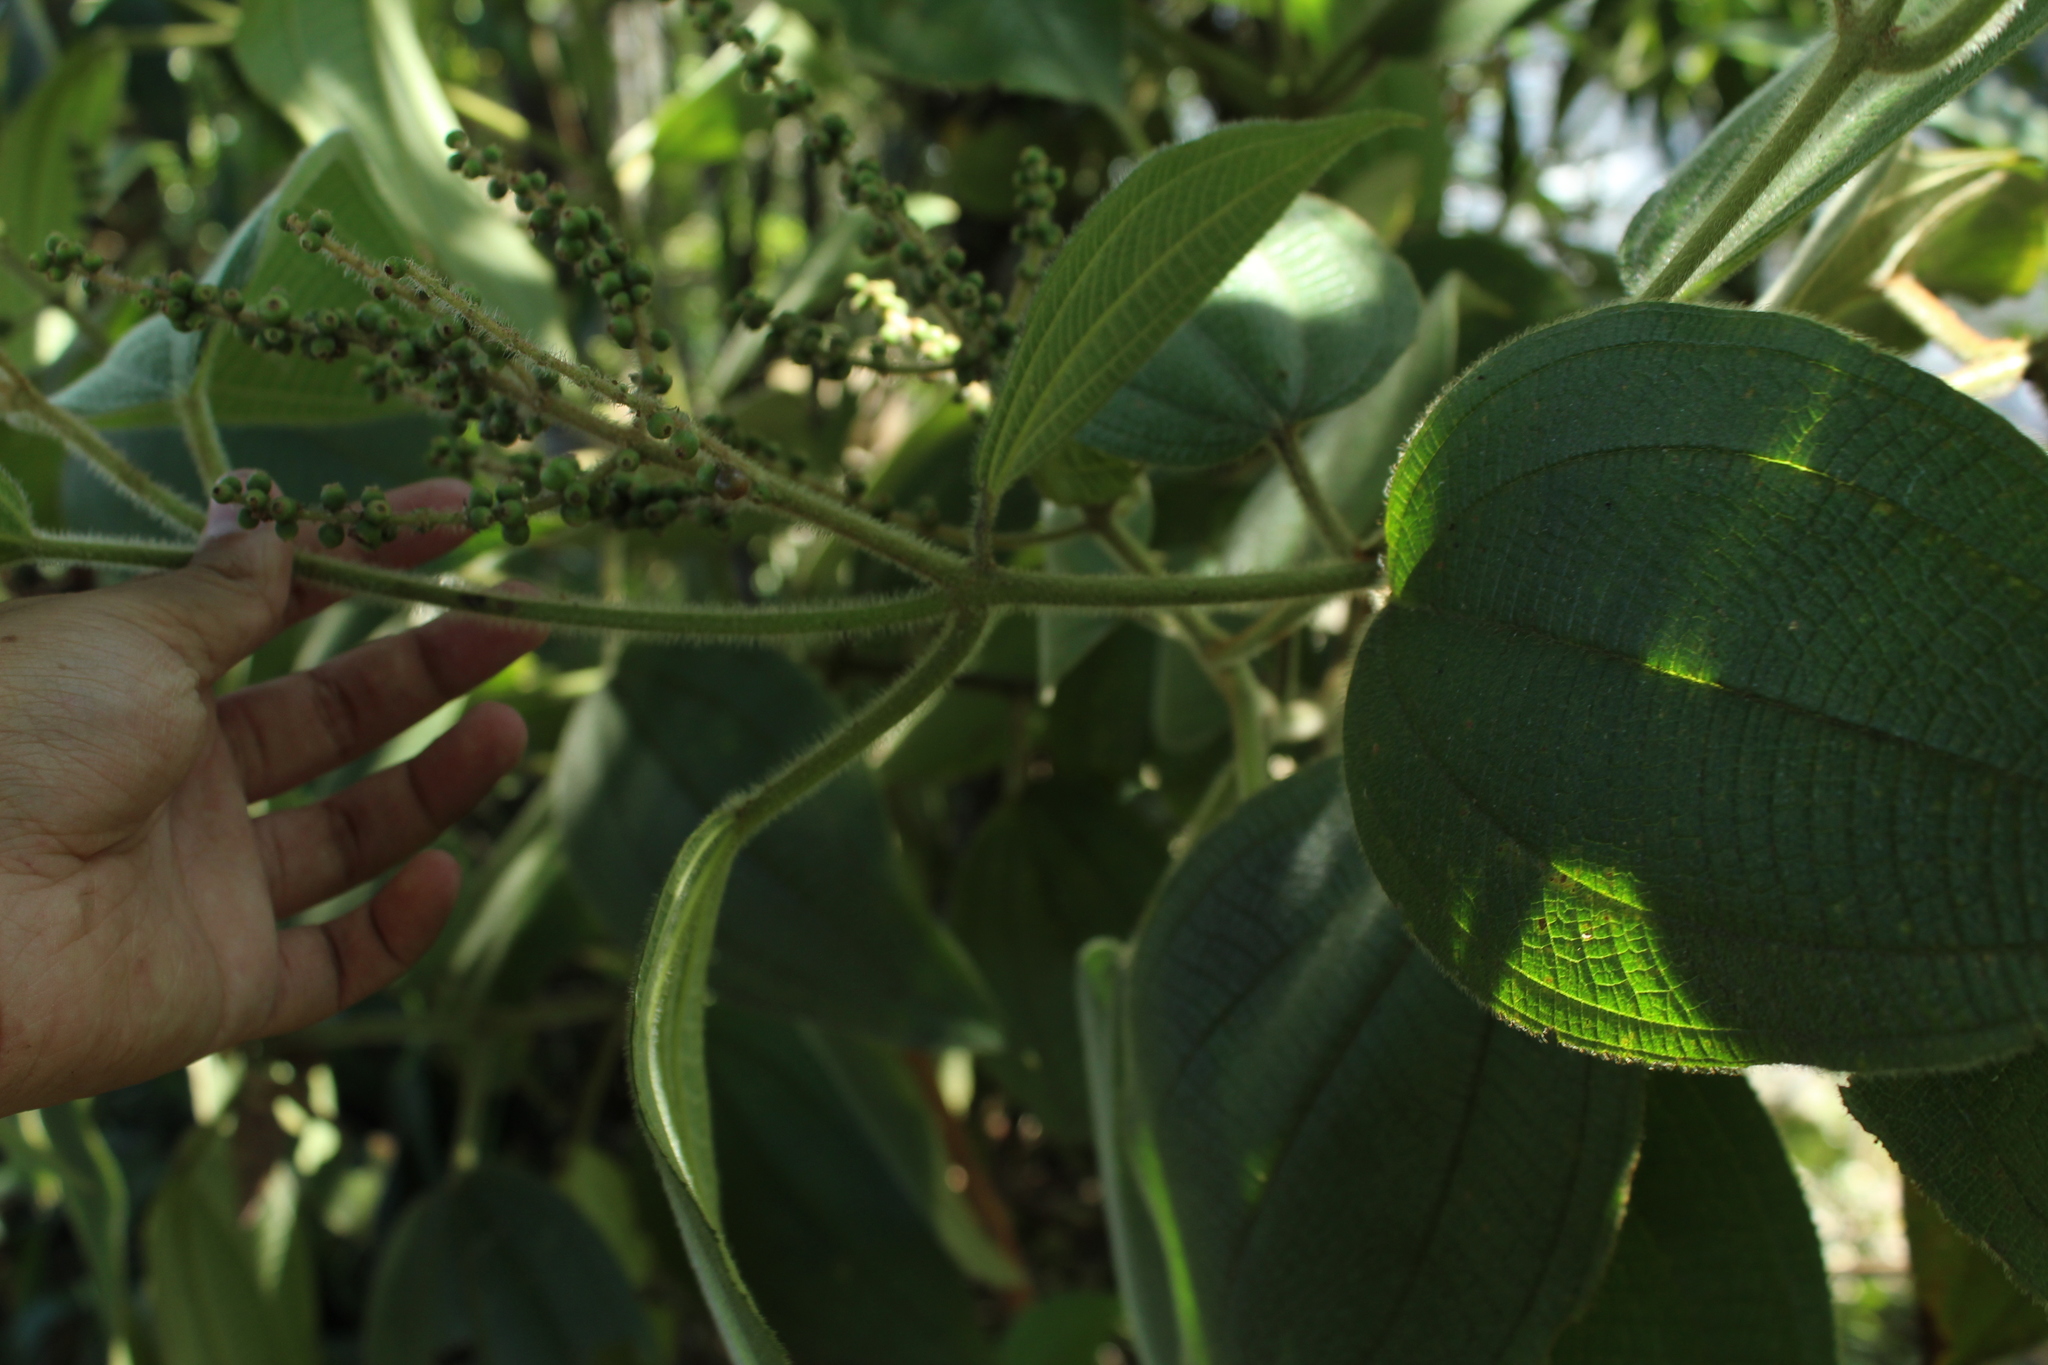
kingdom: Plantae
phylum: Tracheophyta
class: Magnoliopsida
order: Myrtales
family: Melastomataceae
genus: Miconia
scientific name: Miconia aeruginosa
